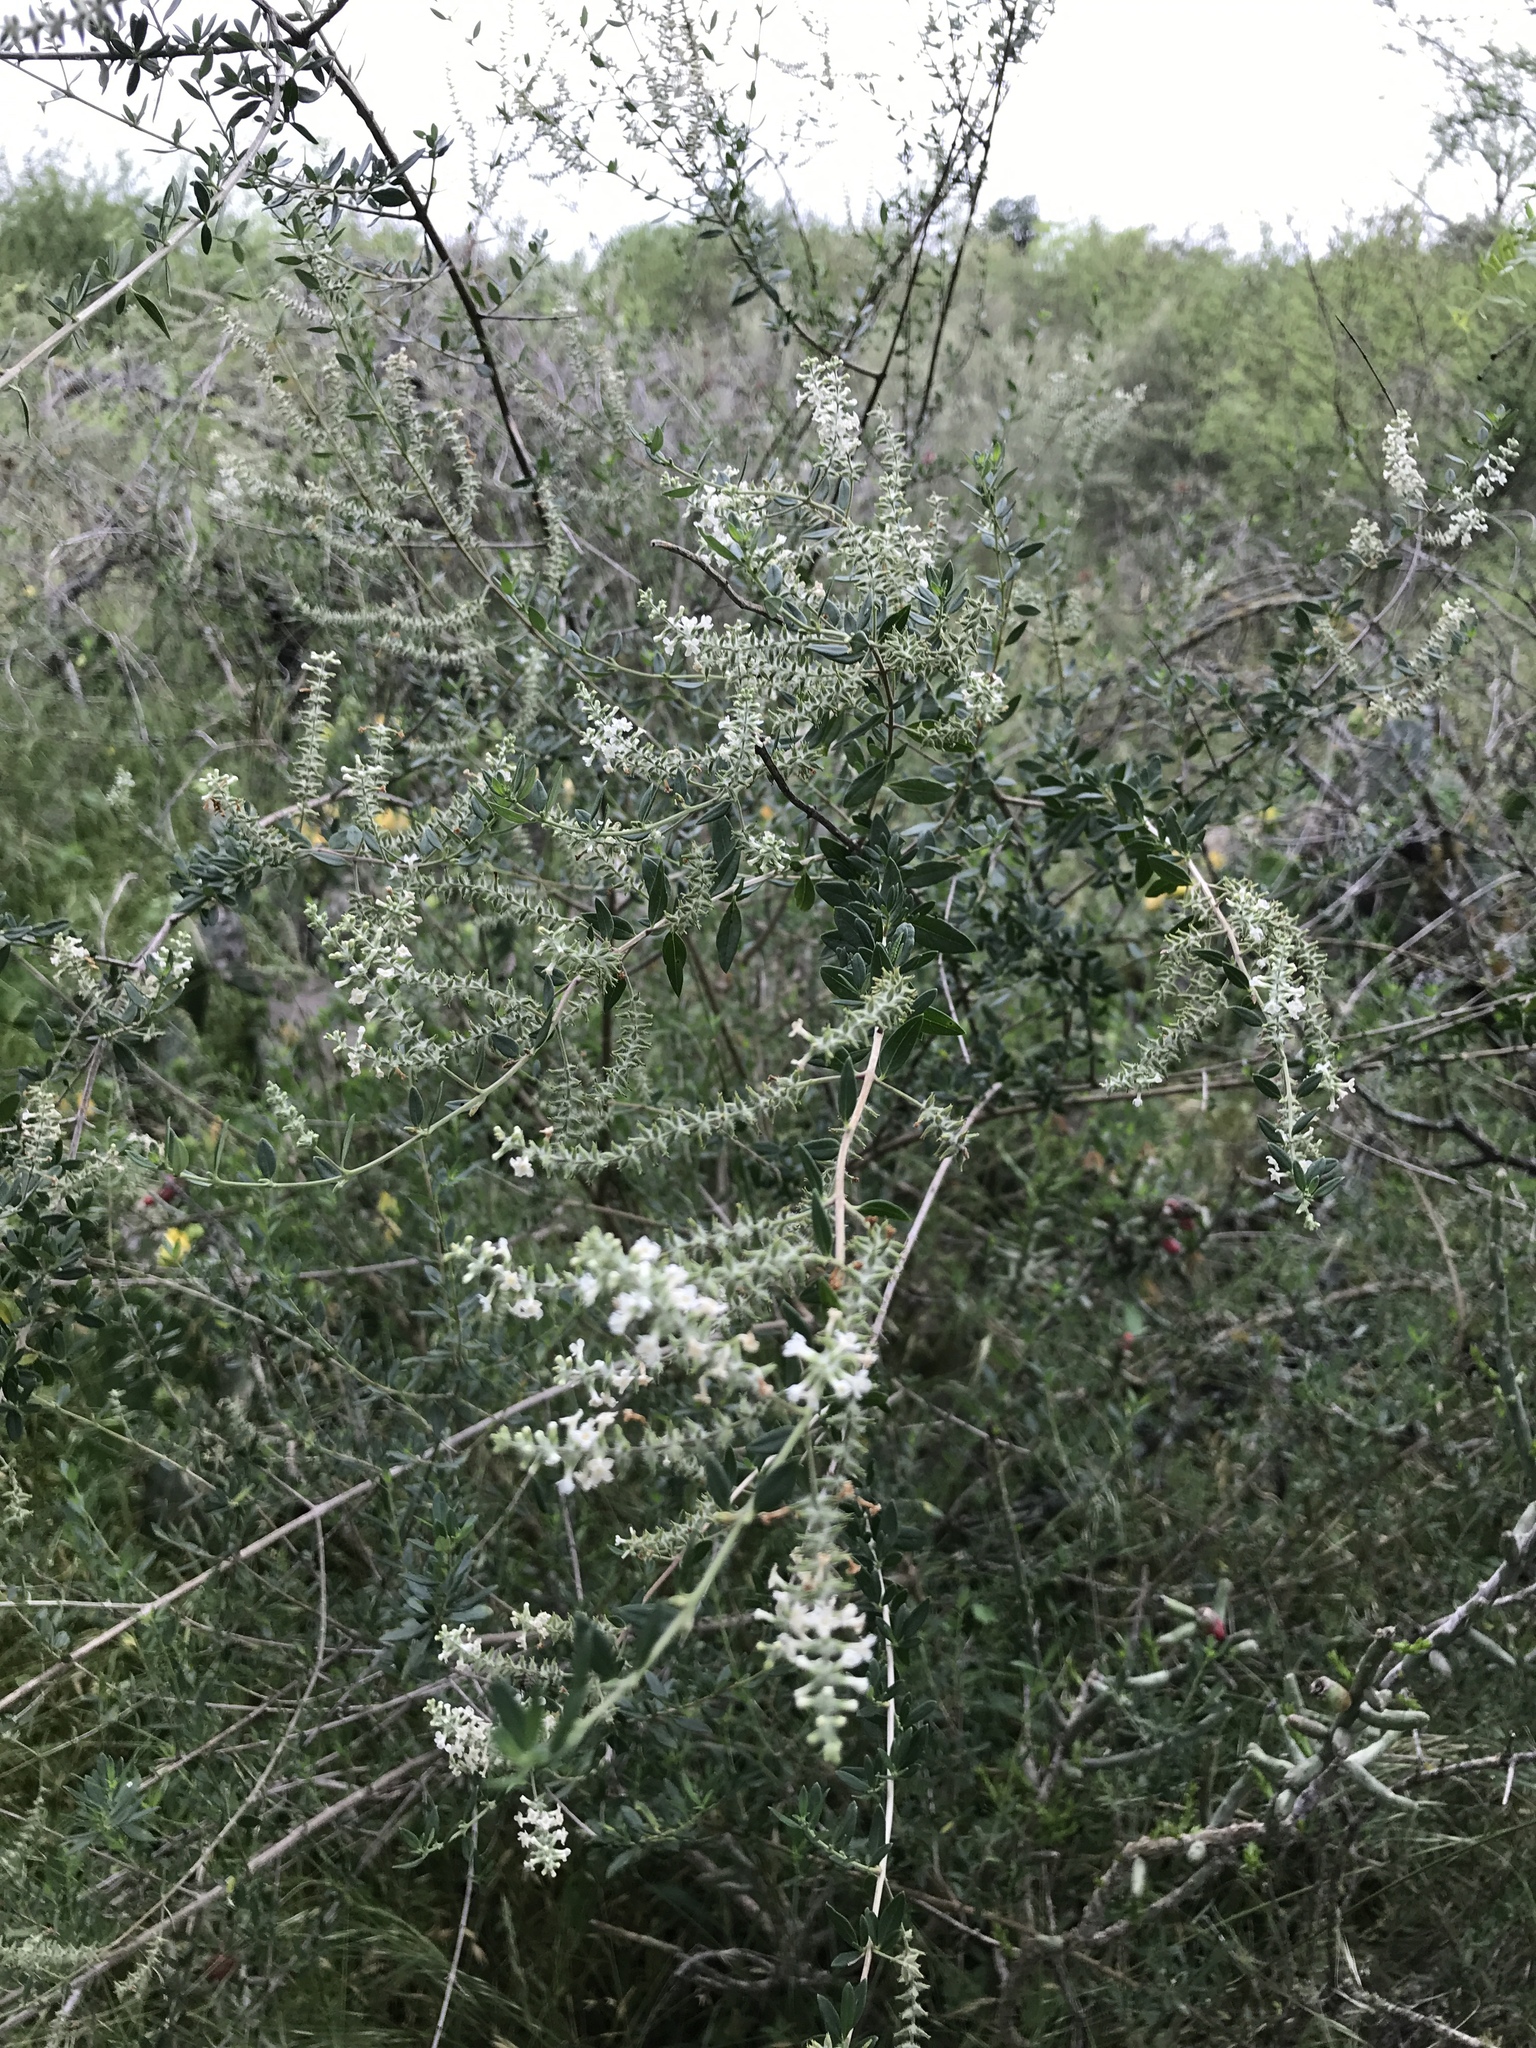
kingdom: Plantae
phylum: Tracheophyta
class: Magnoliopsida
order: Lamiales
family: Verbenaceae
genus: Aloysia
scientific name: Aloysia gratissima
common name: Common bee-brush
